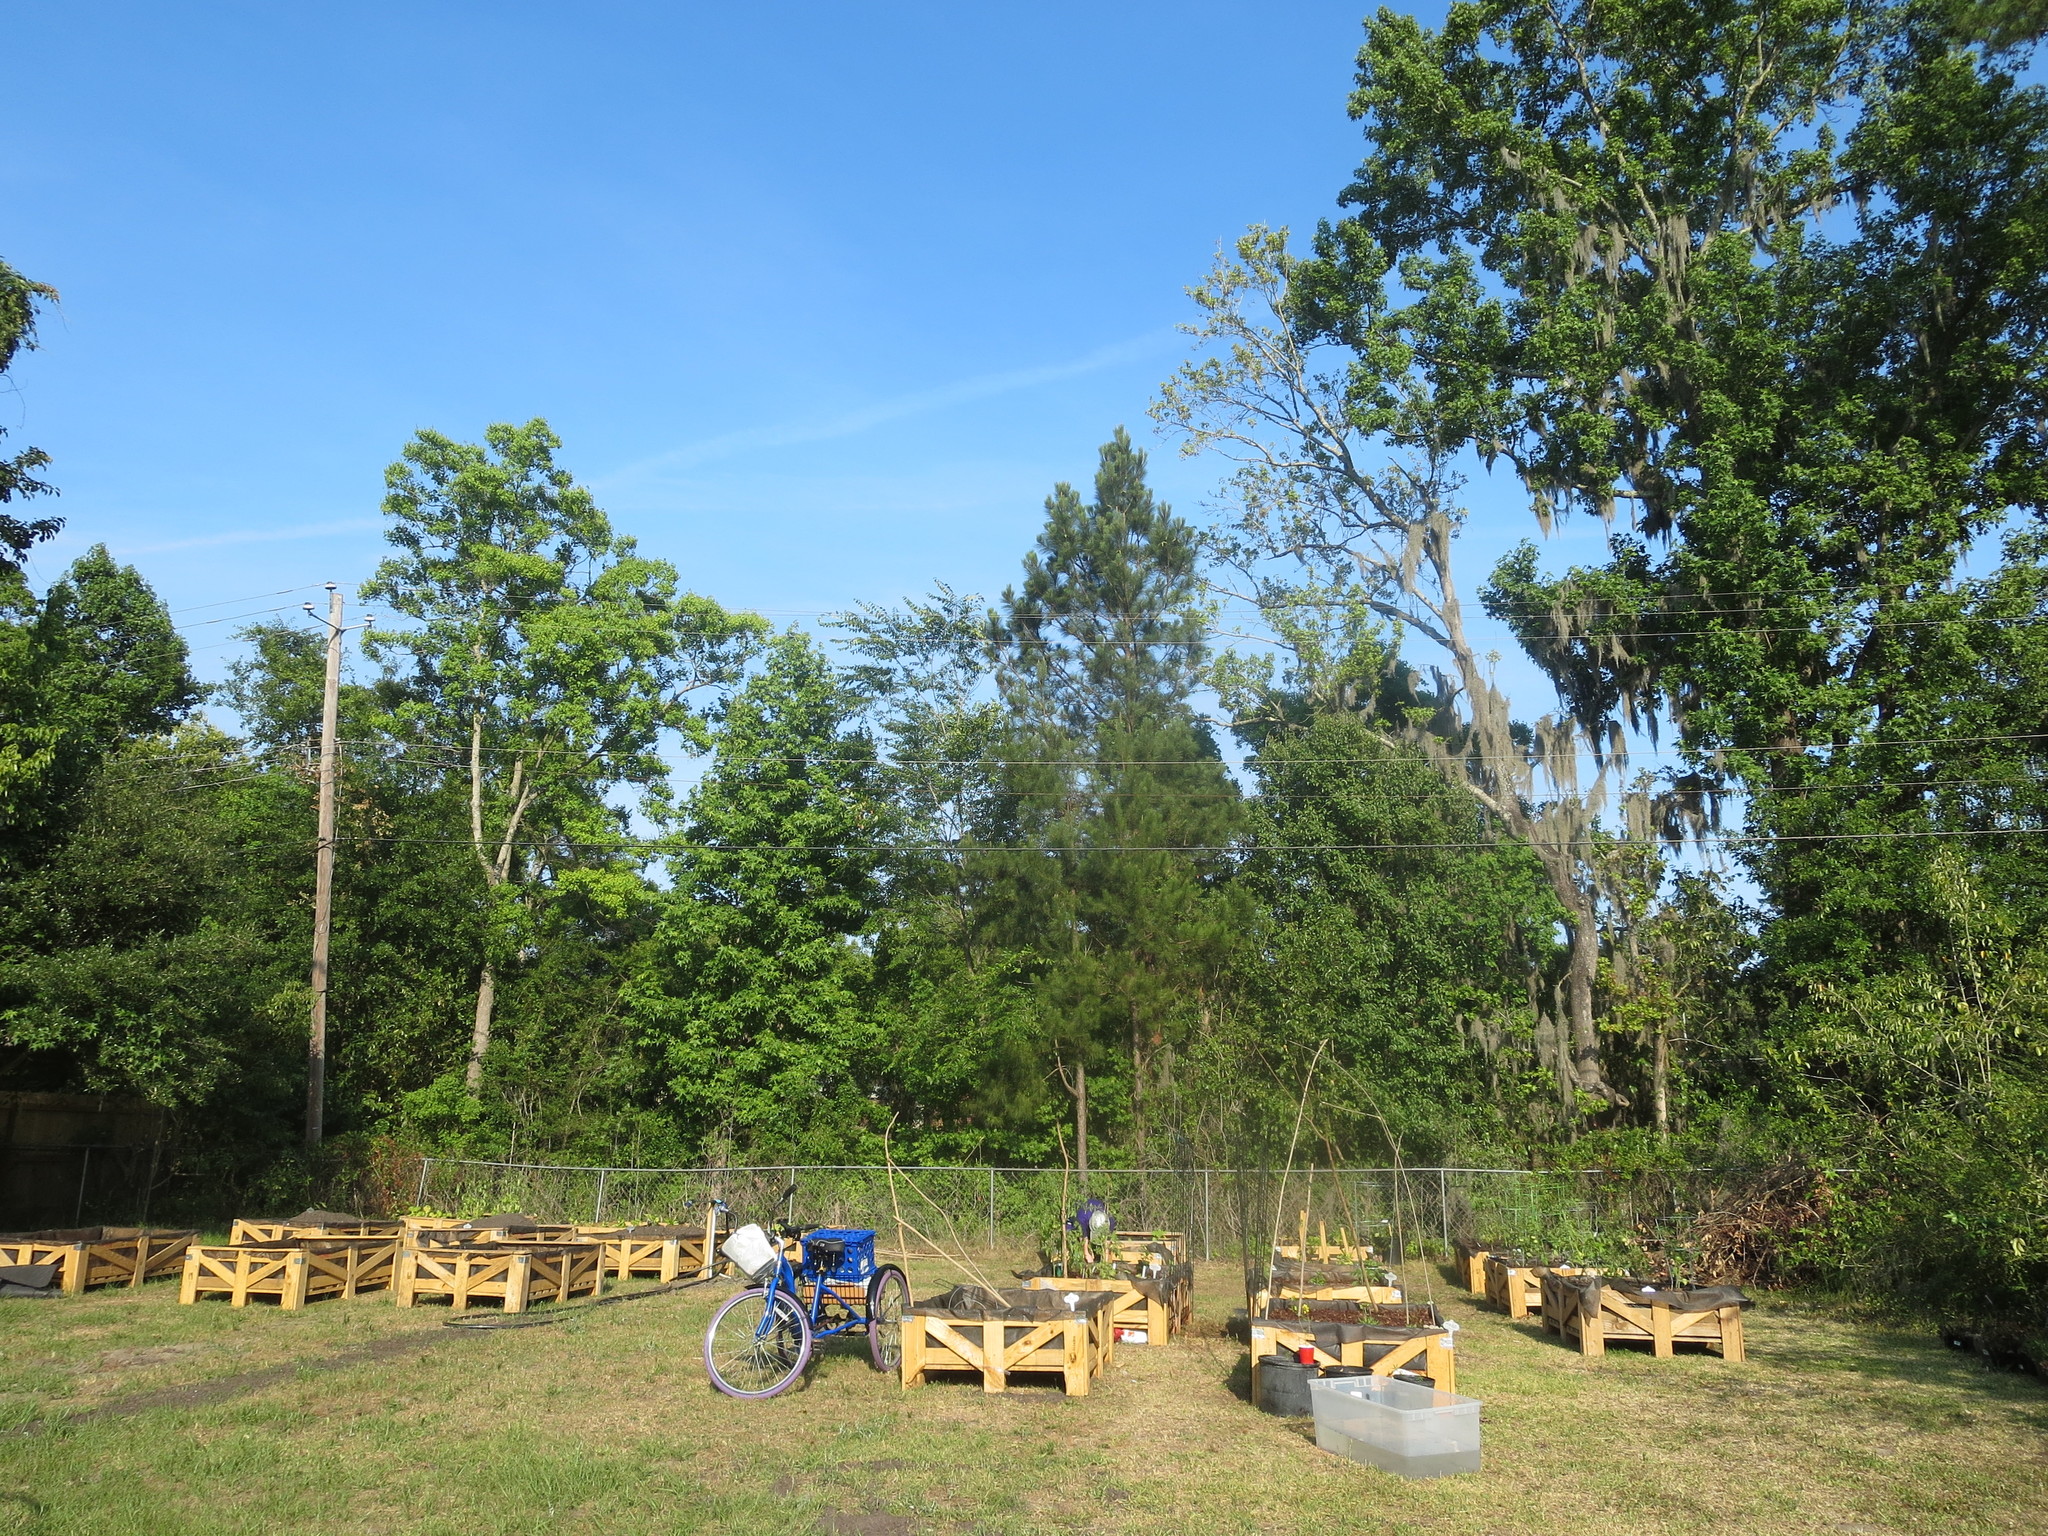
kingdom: Plantae
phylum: Tracheophyta
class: Magnoliopsida
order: Saxifragales
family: Altingiaceae
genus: Liquidambar
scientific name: Liquidambar styraciflua
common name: Sweet gum
